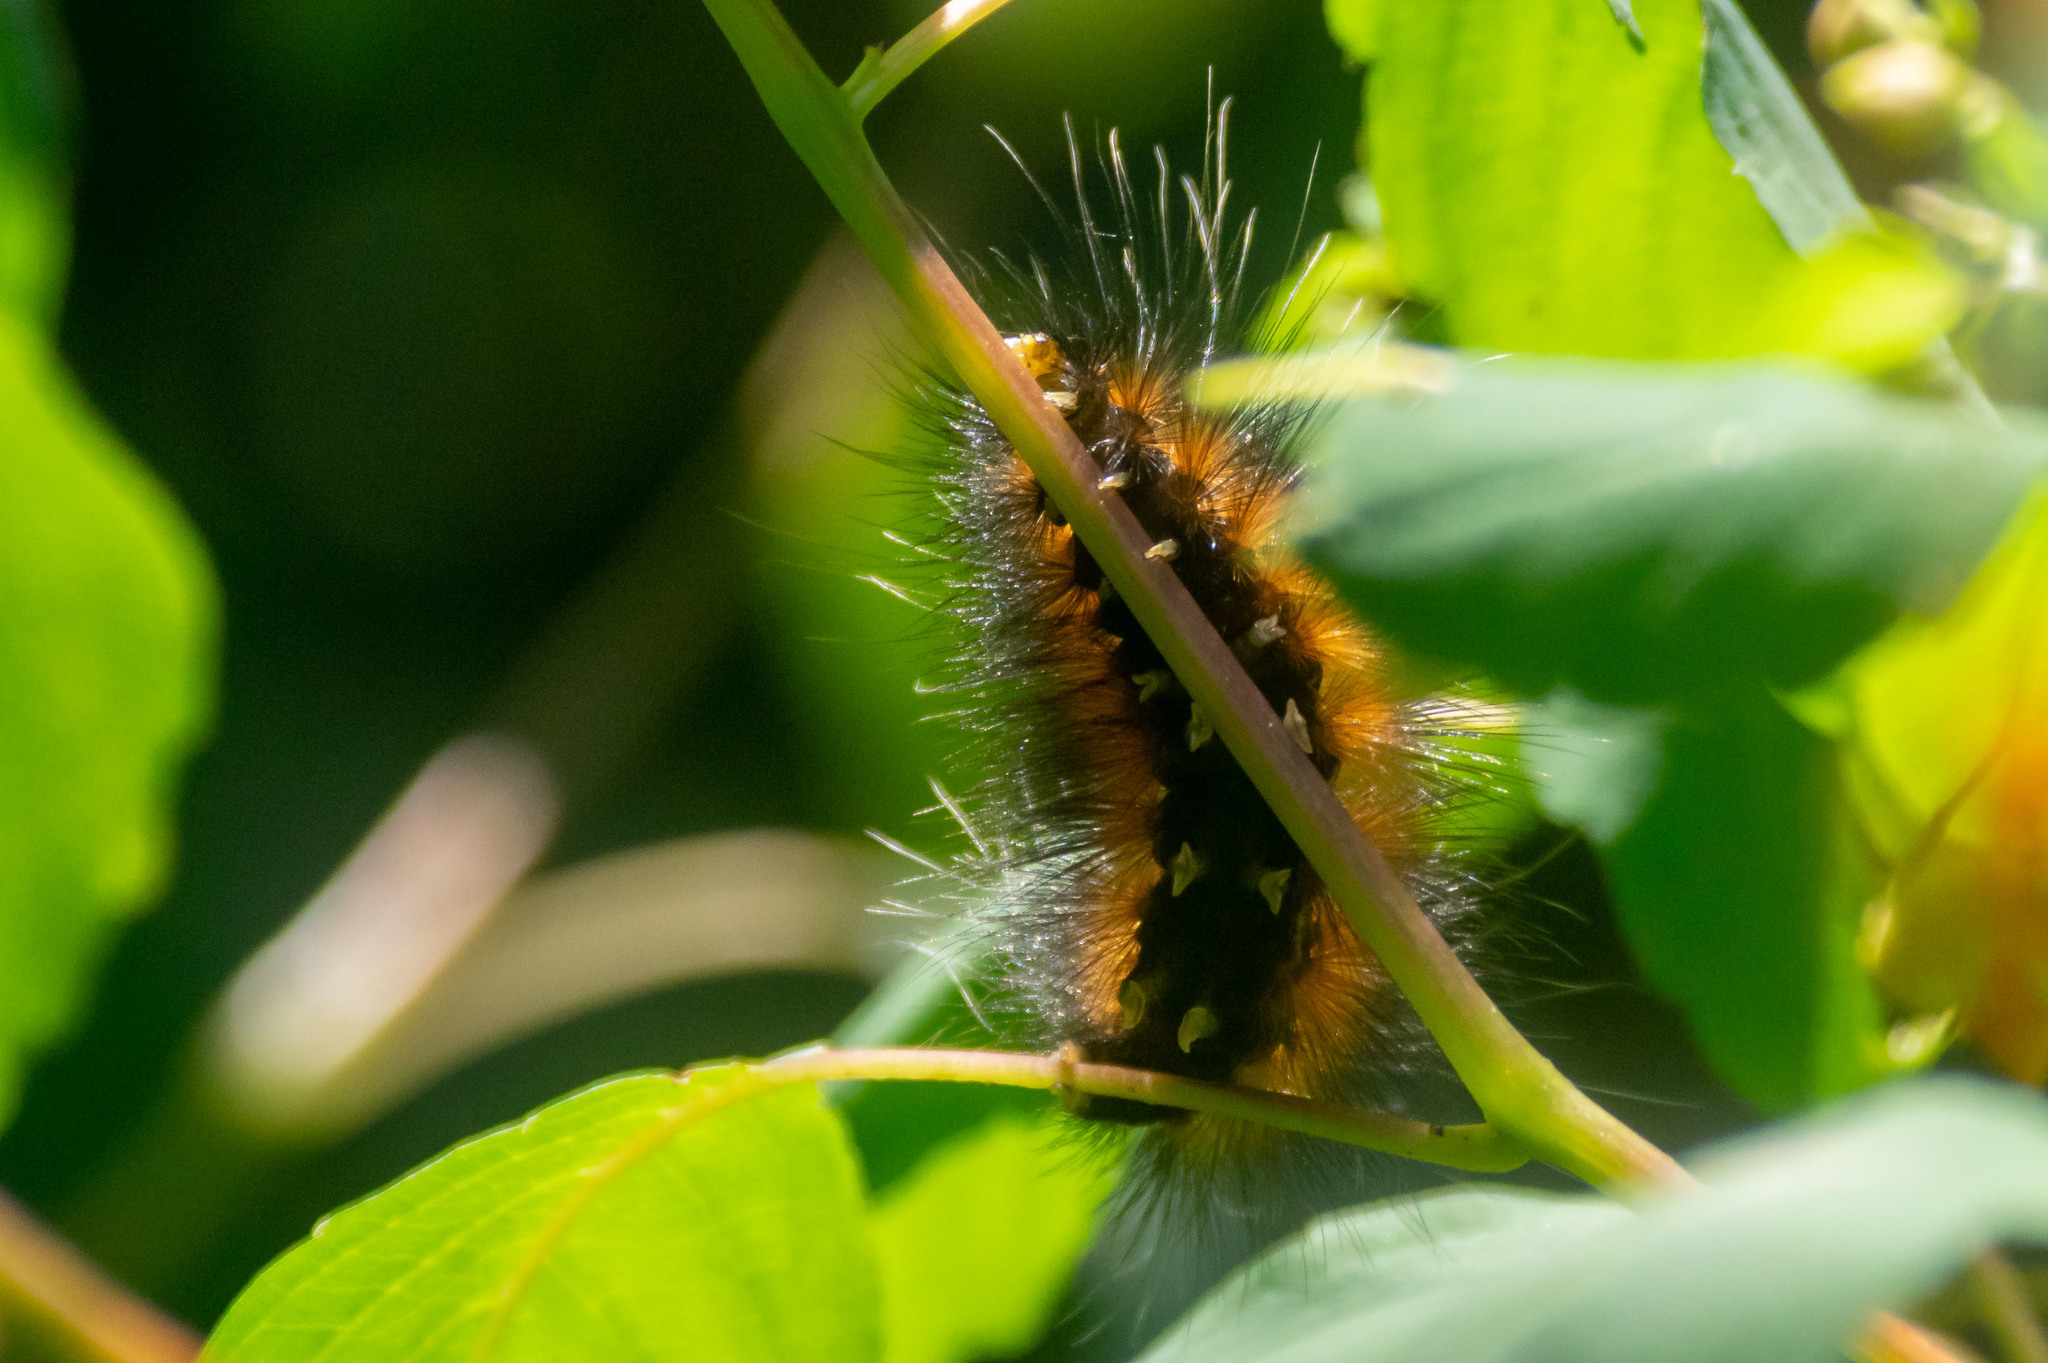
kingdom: Animalia
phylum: Arthropoda
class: Insecta
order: Lepidoptera
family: Erebidae
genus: Spilosoma
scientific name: Spilosoma virginica
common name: Virginia tiger moth
